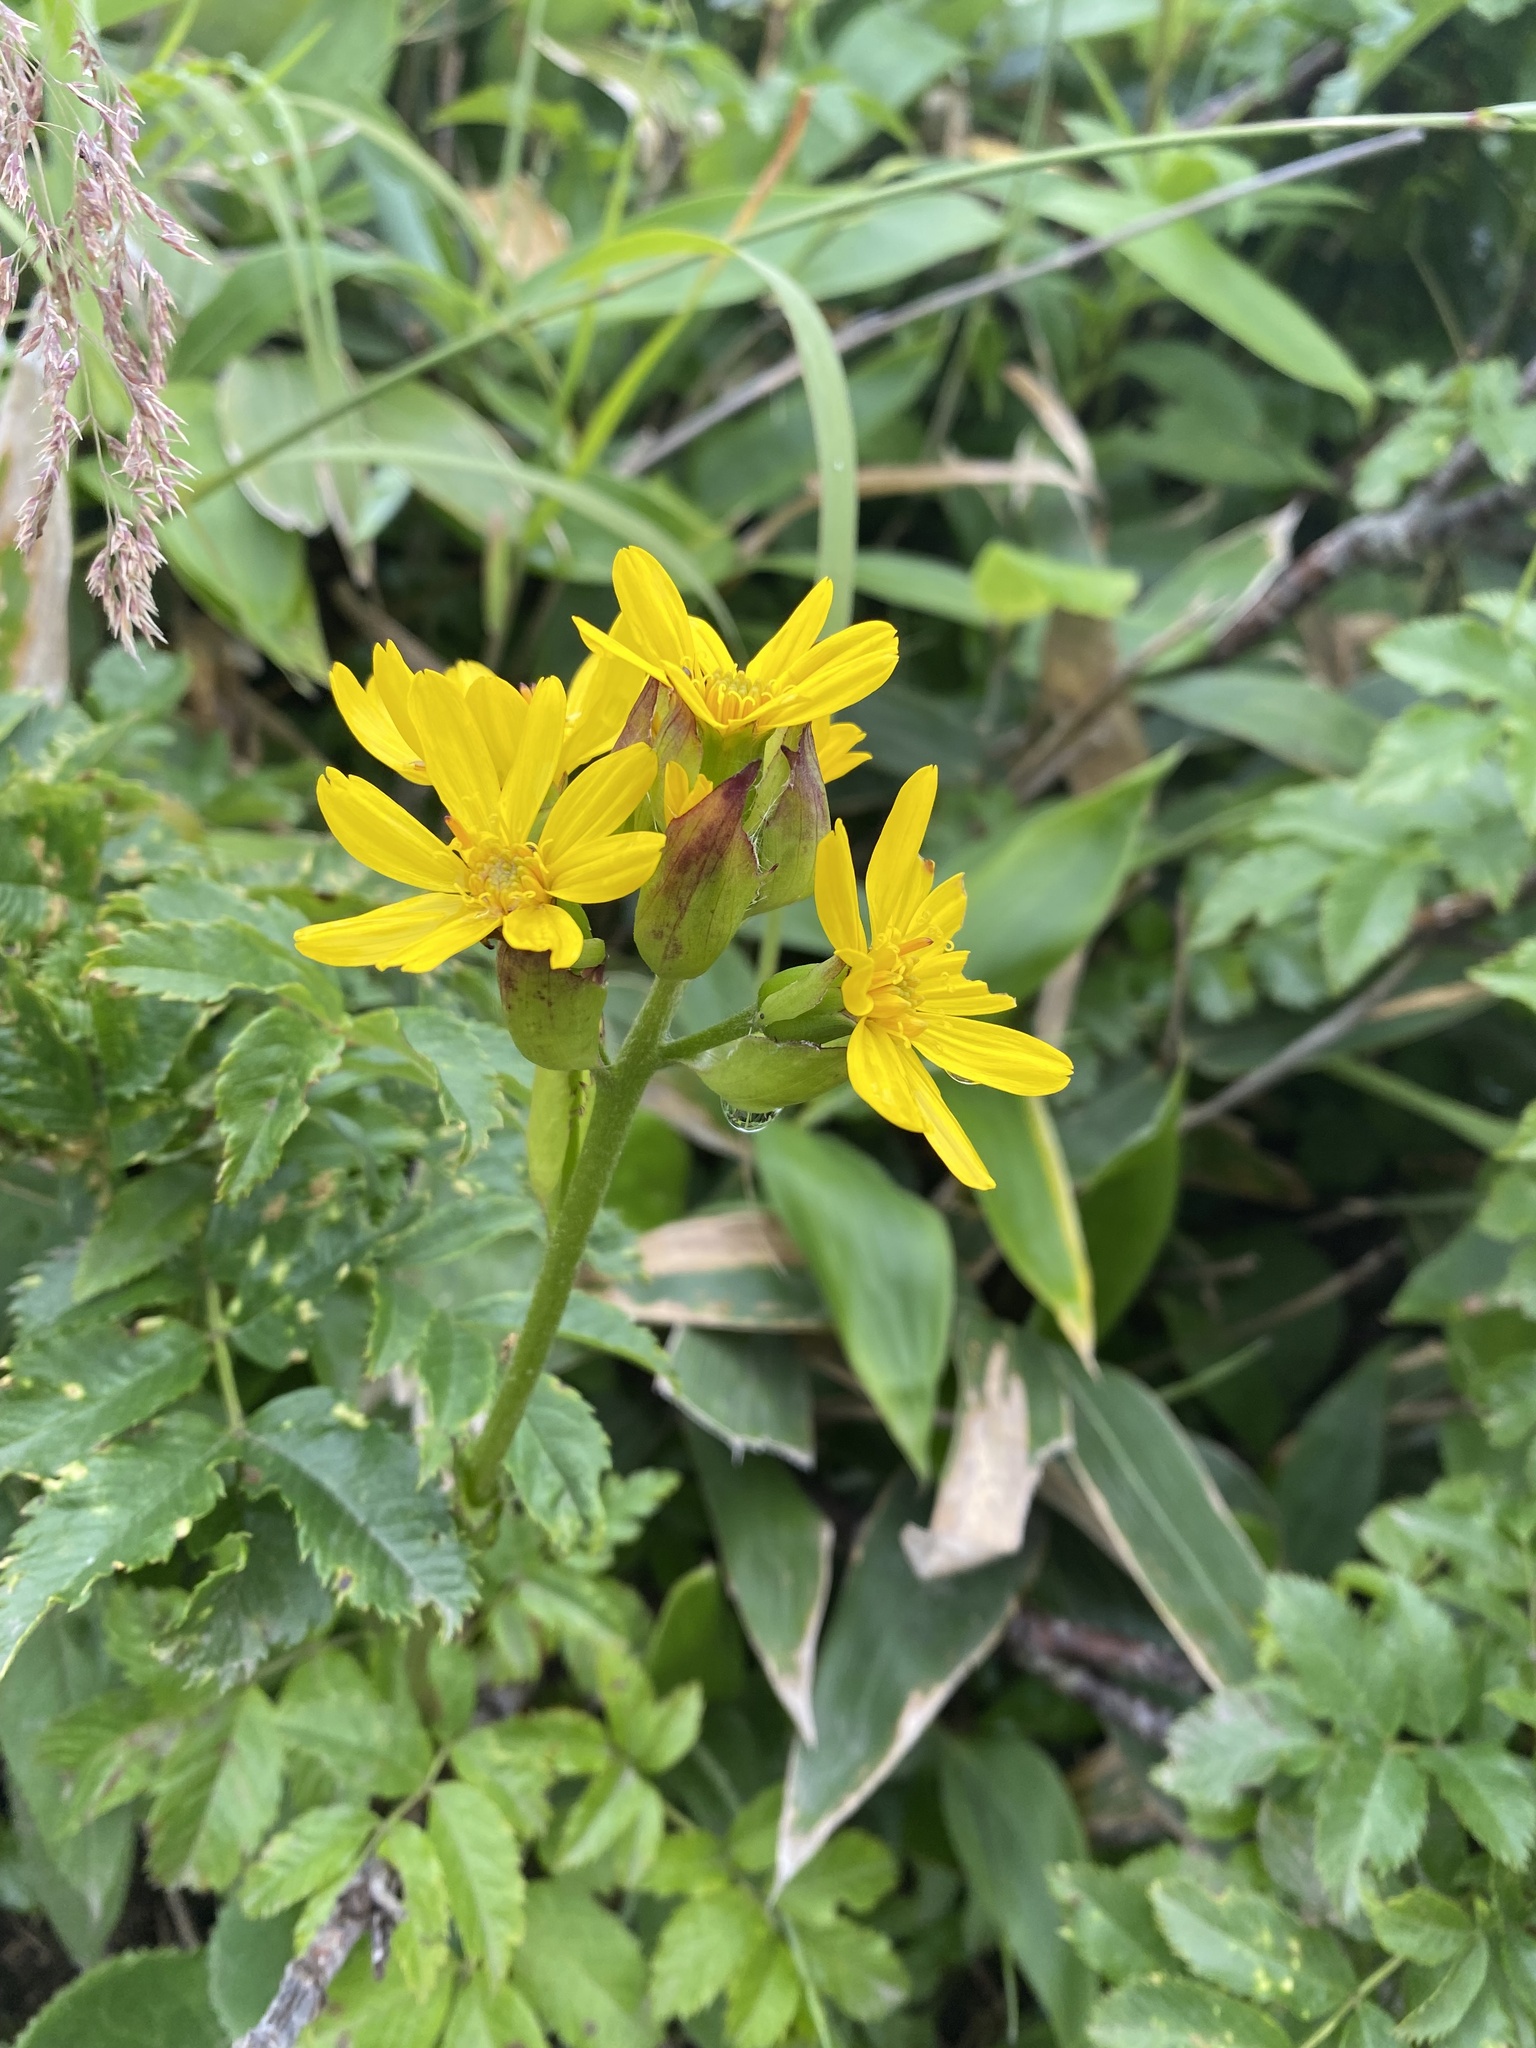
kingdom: Plantae
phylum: Tracheophyta
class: Magnoliopsida
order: Asterales
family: Asteraceae
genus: Ligularia
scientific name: Ligularia hodgsonii
